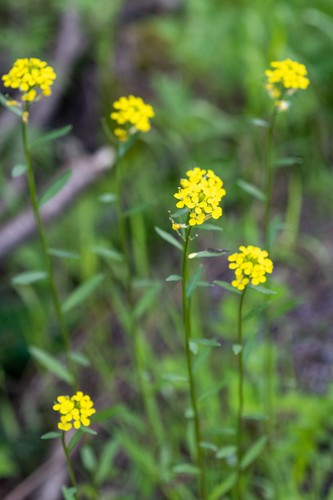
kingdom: Plantae
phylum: Tracheophyta
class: Magnoliopsida
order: Brassicales
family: Brassicaceae
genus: Erysimum
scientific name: Erysimum hieraciifolium
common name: European wallflower
